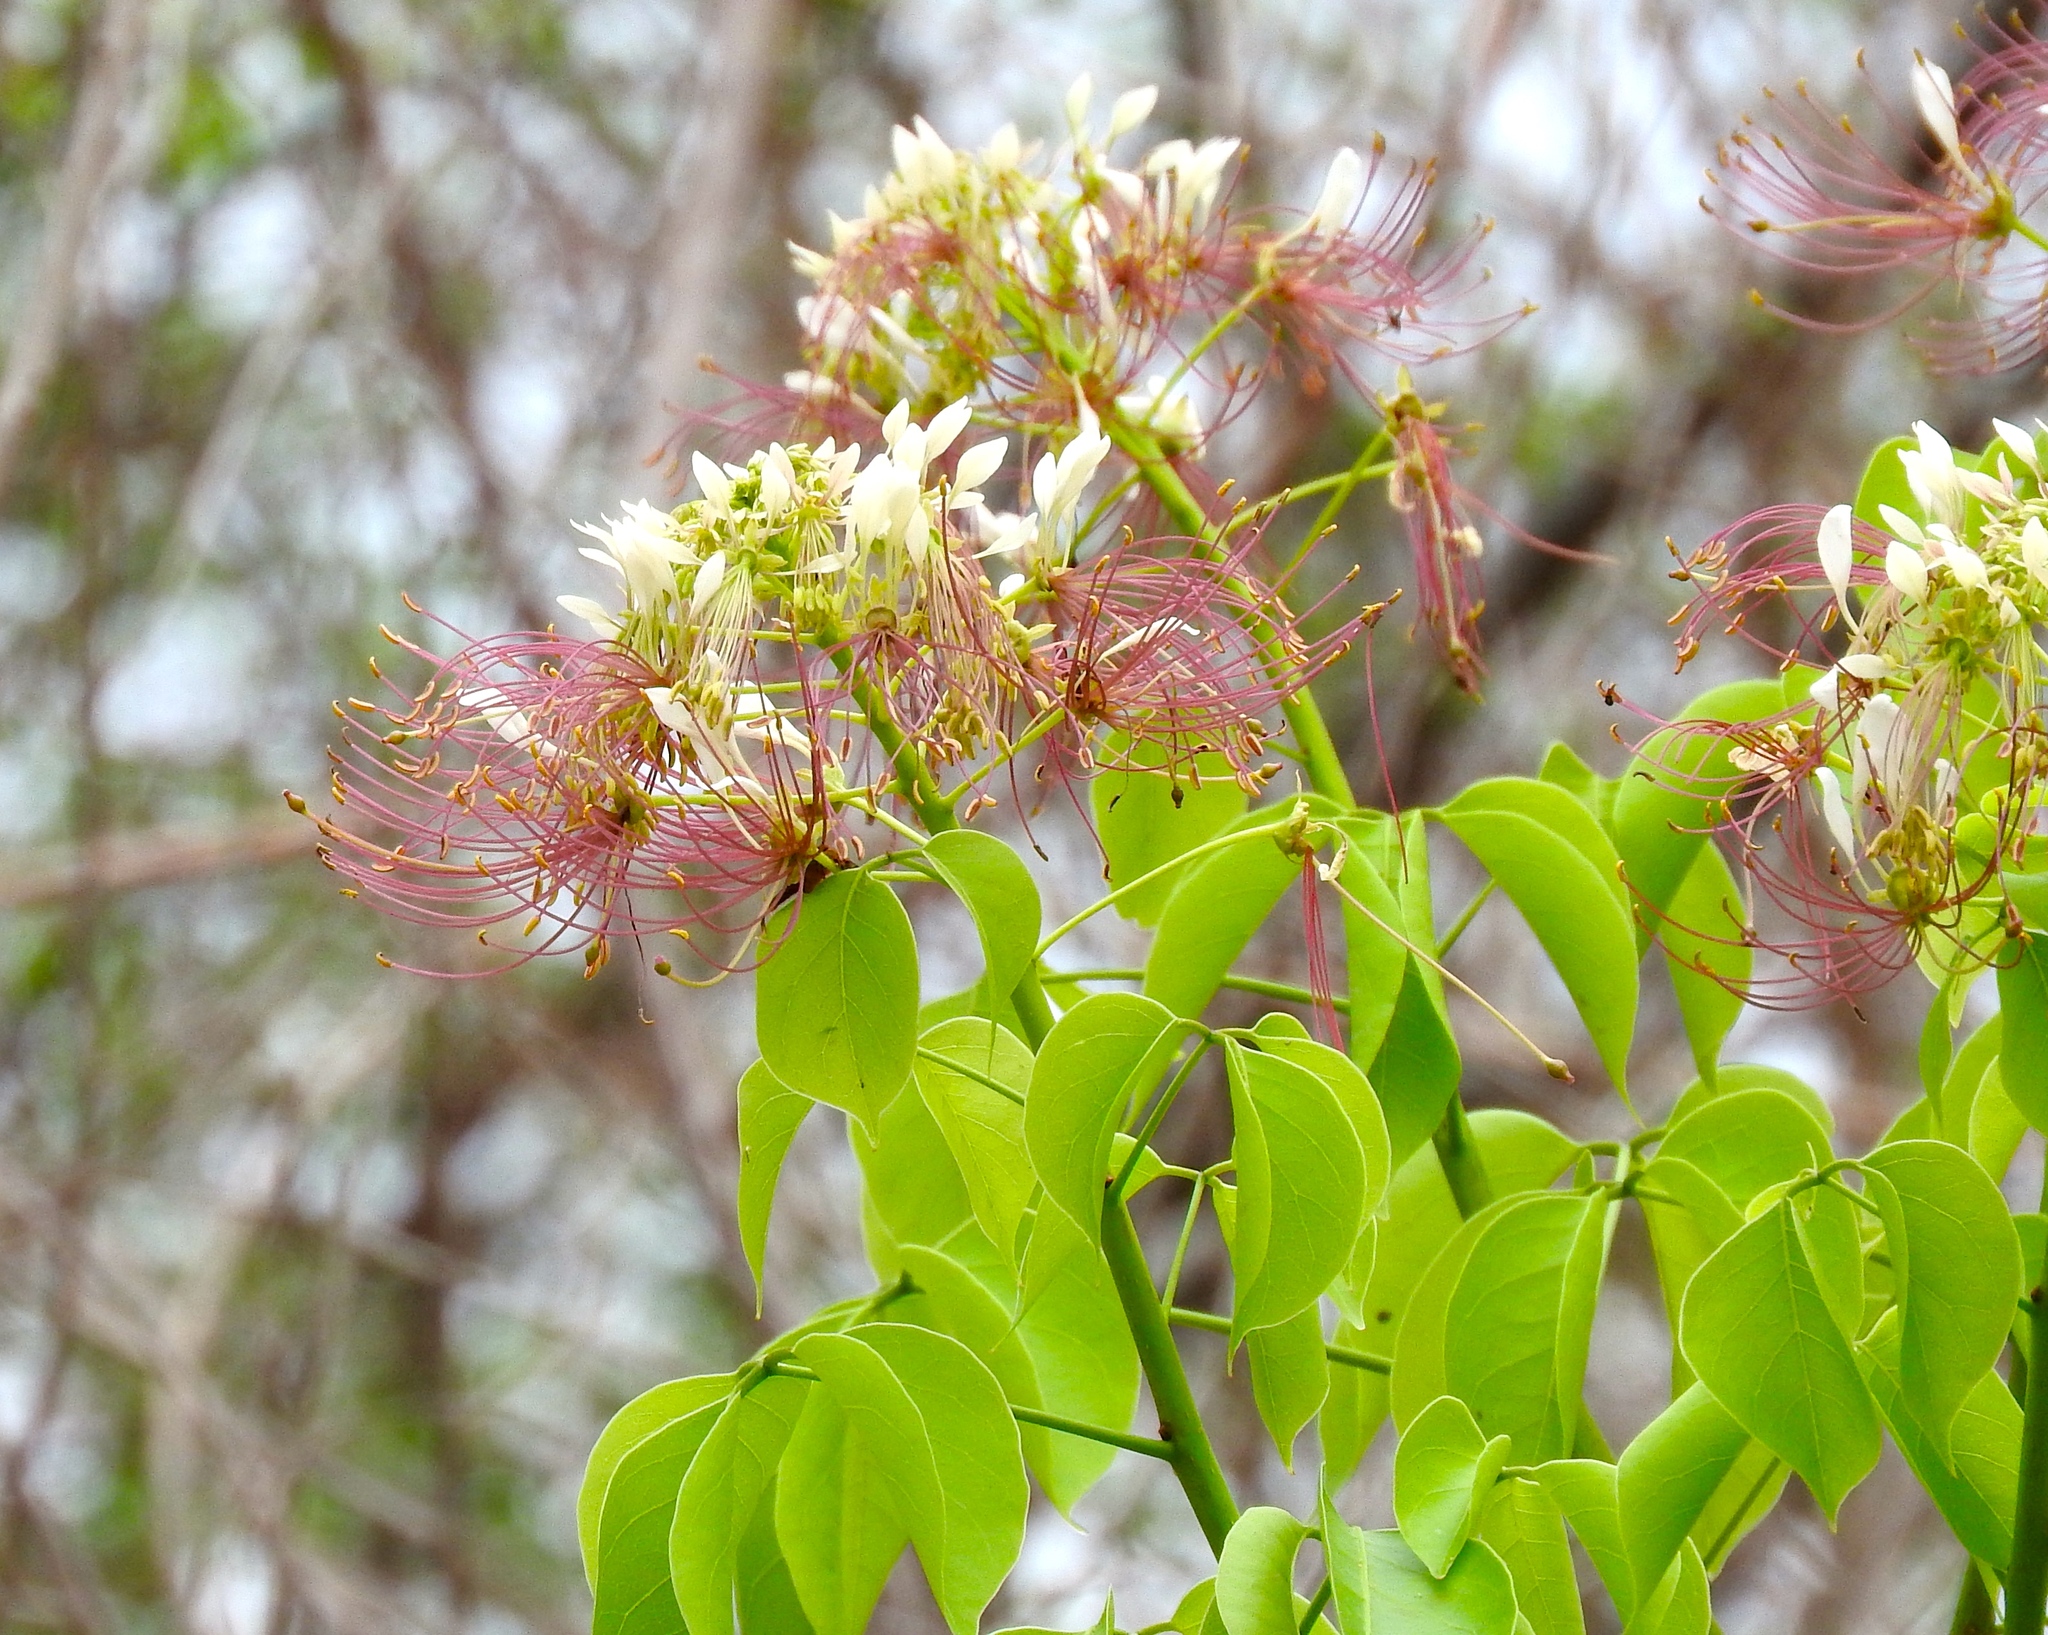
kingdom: Plantae
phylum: Tracheophyta
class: Magnoliopsida
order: Brassicales
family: Capparaceae
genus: Crateva
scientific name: Crateva tapia
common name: Garlic-pear
